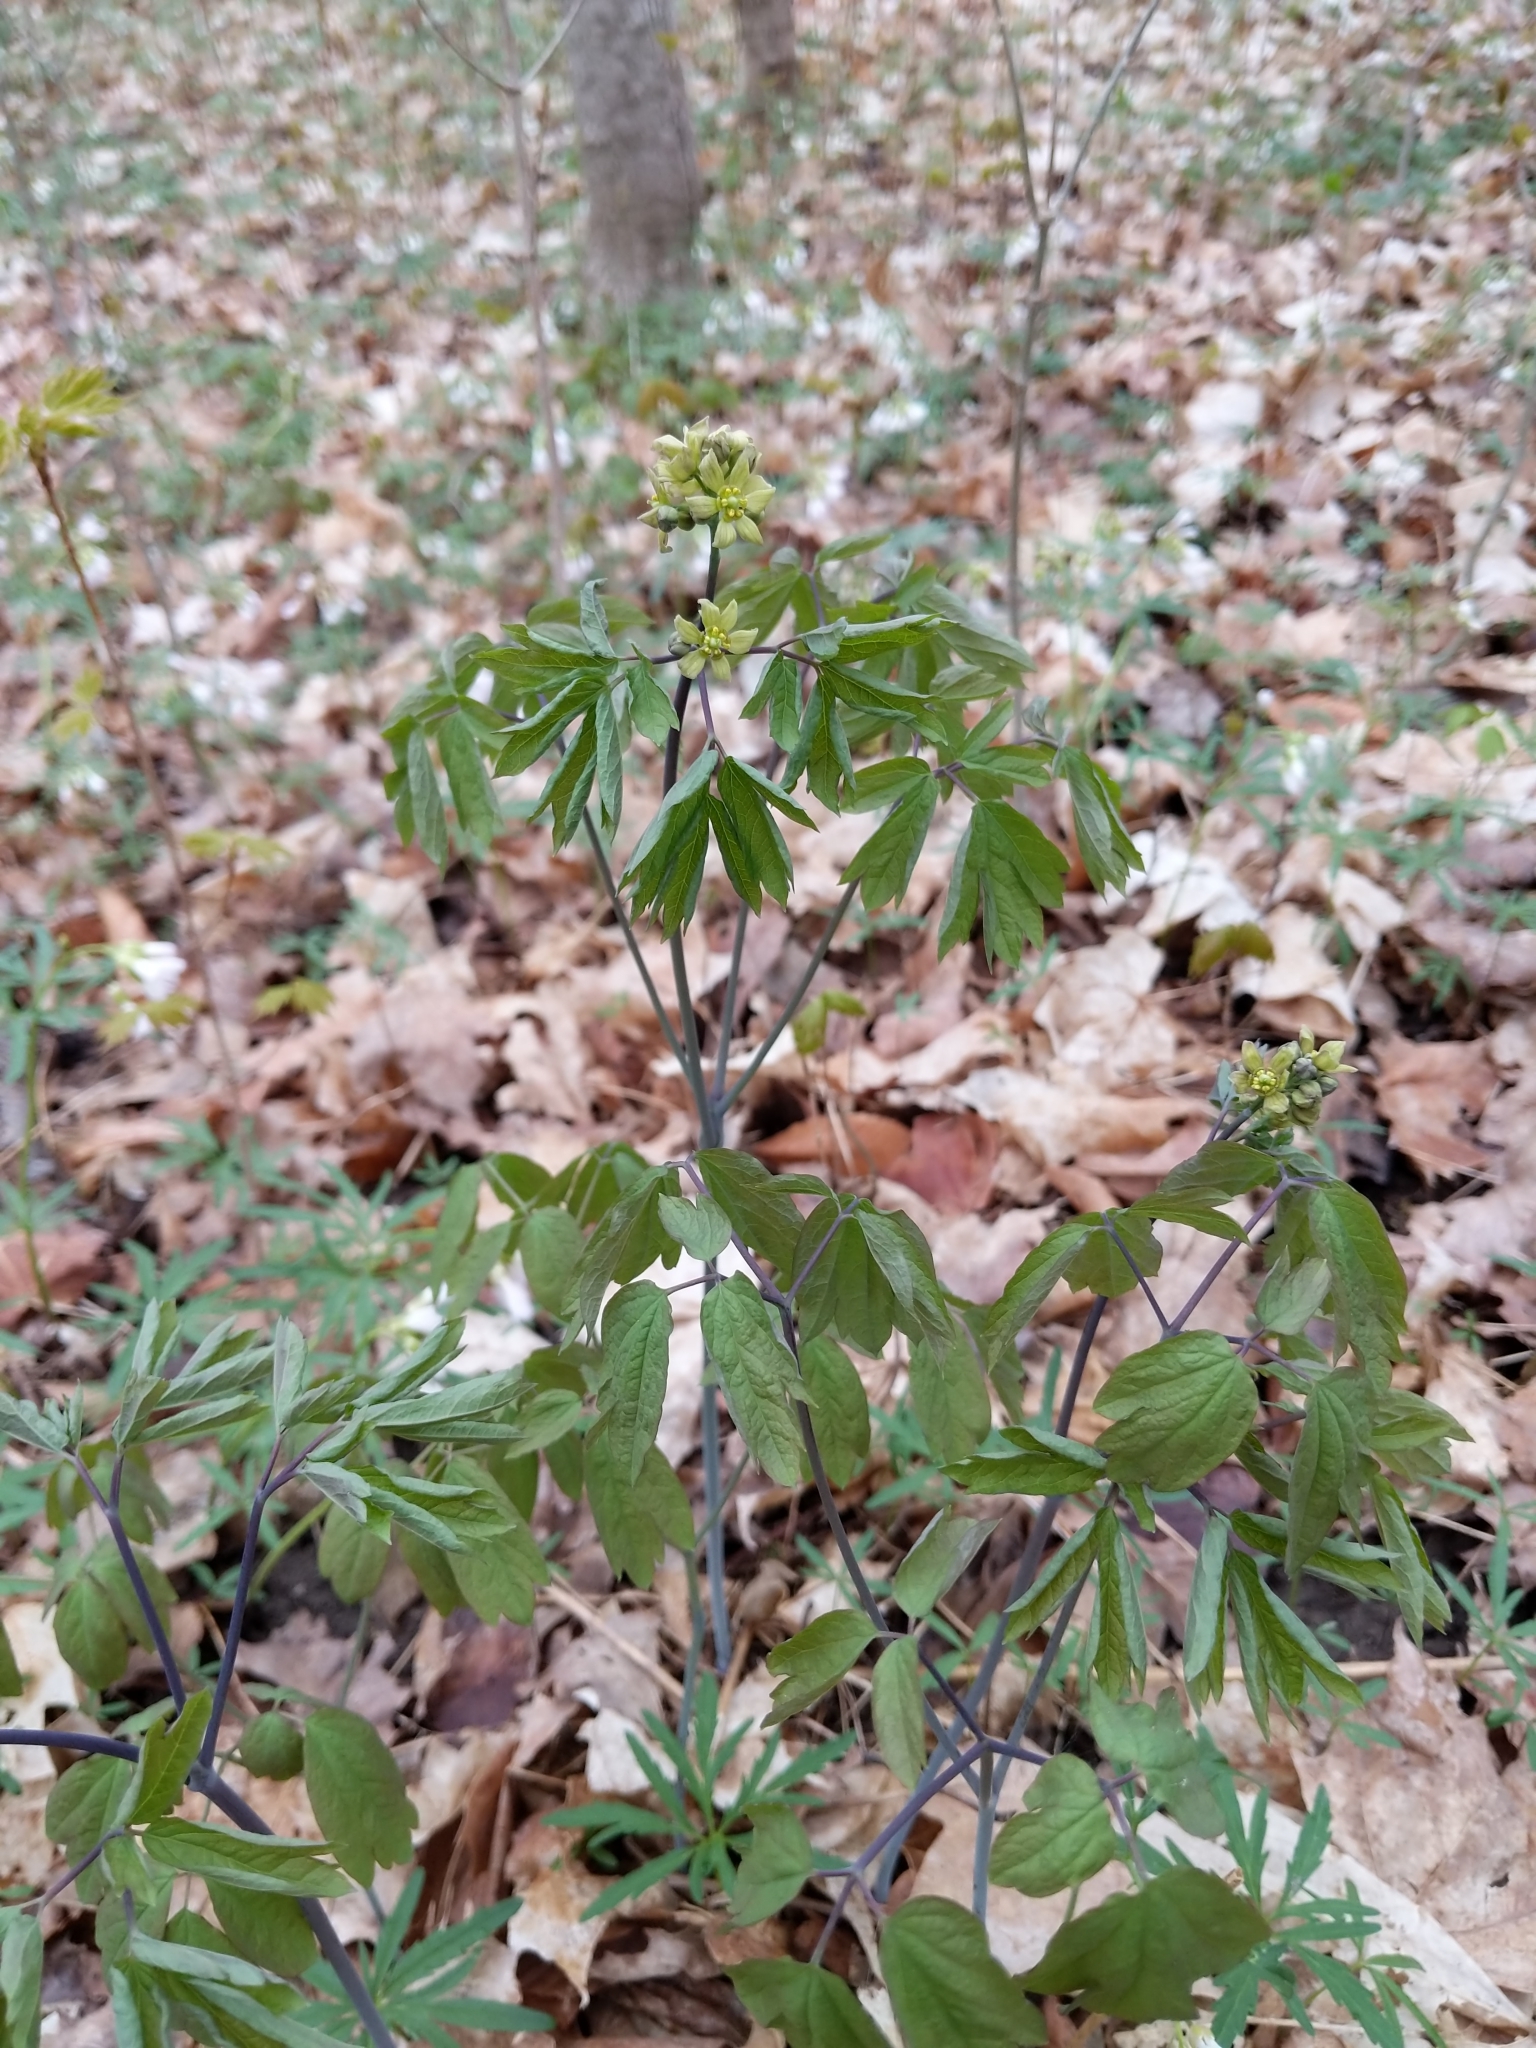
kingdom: Plantae
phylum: Tracheophyta
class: Magnoliopsida
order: Ranunculales
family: Berberidaceae
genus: Caulophyllum
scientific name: Caulophyllum thalictroides
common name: Blue cohosh
